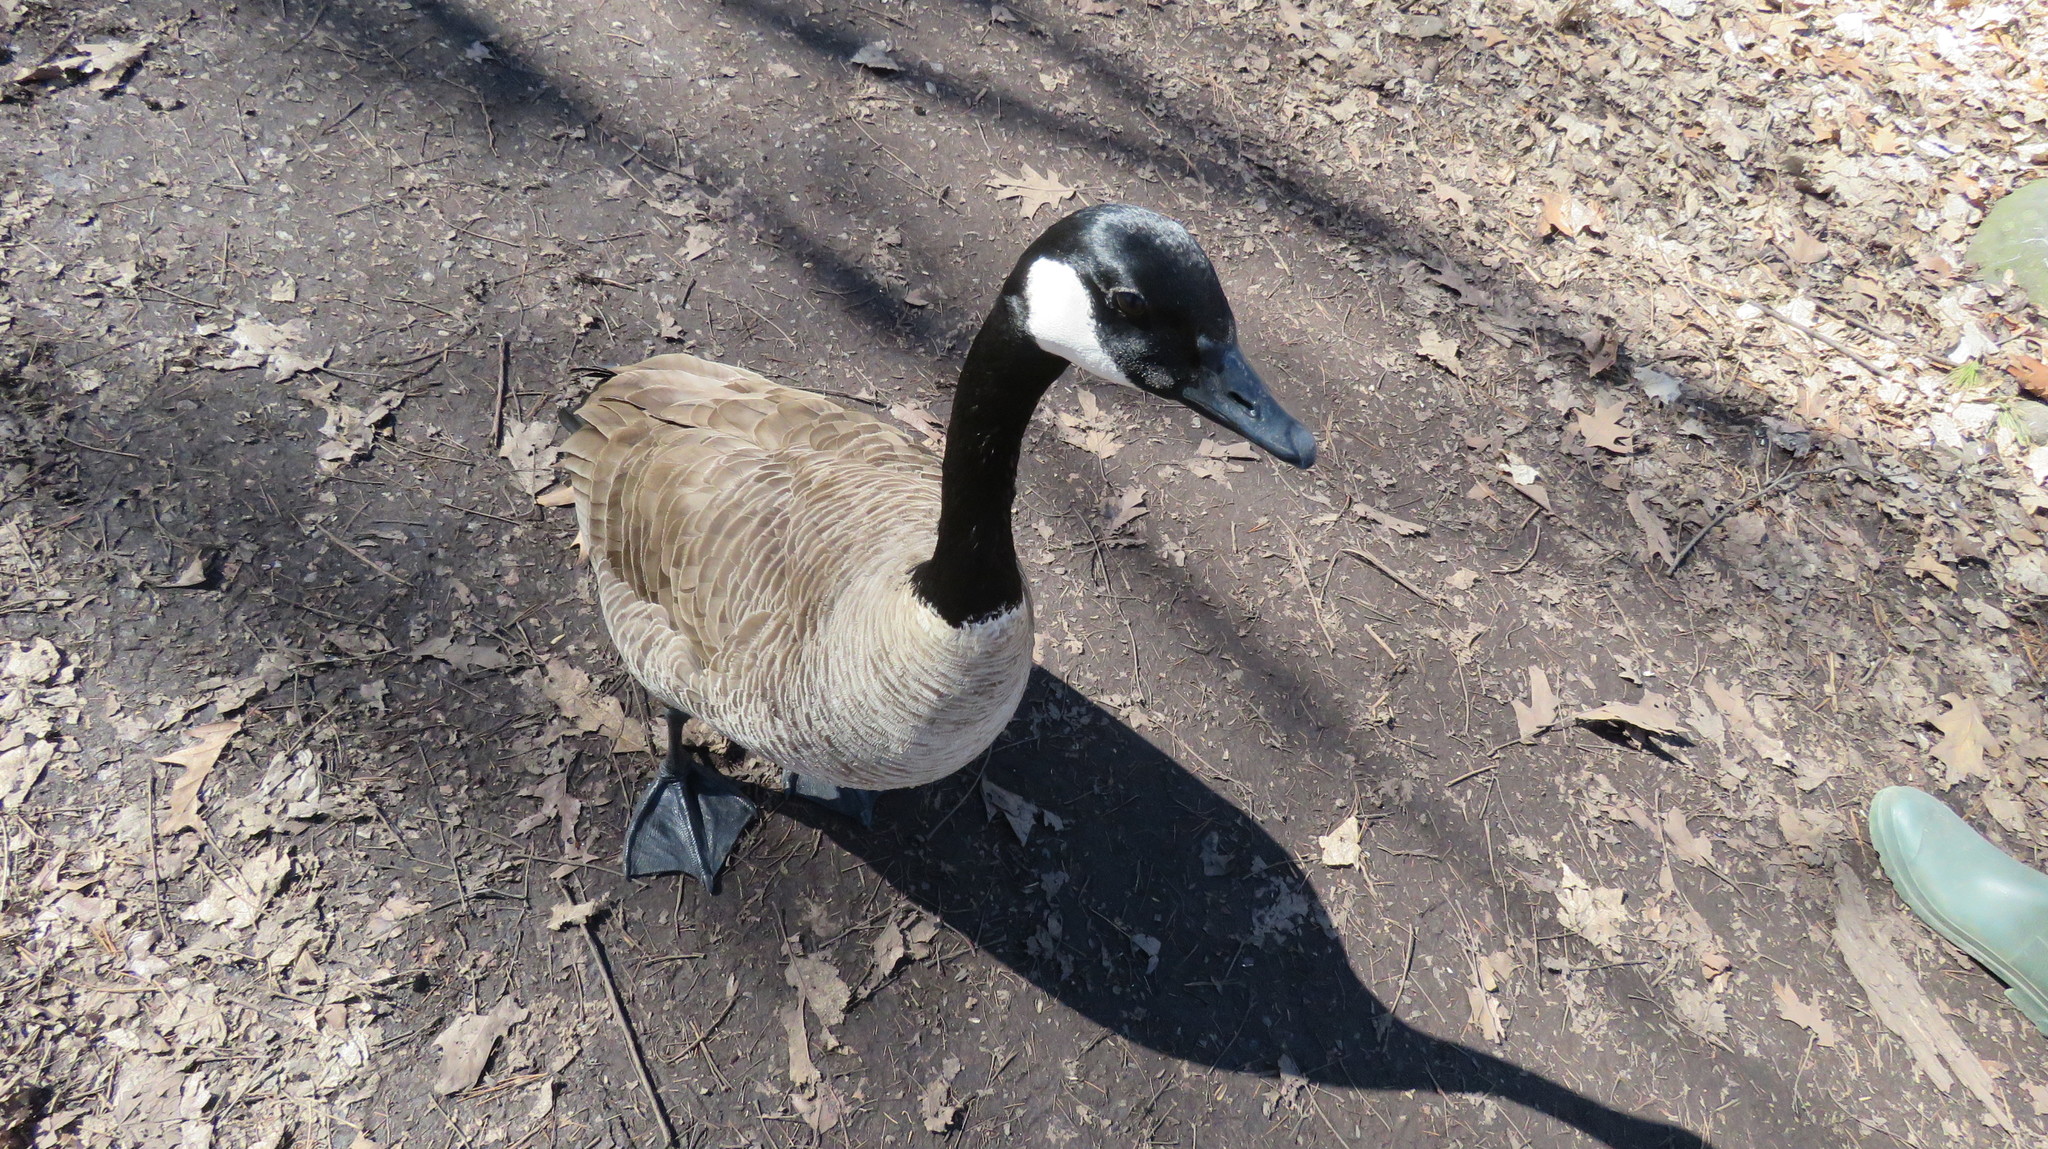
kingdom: Animalia
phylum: Chordata
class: Aves
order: Anseriformes
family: Anatidae
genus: Branta
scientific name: Branta canadensis
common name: Canada goose
